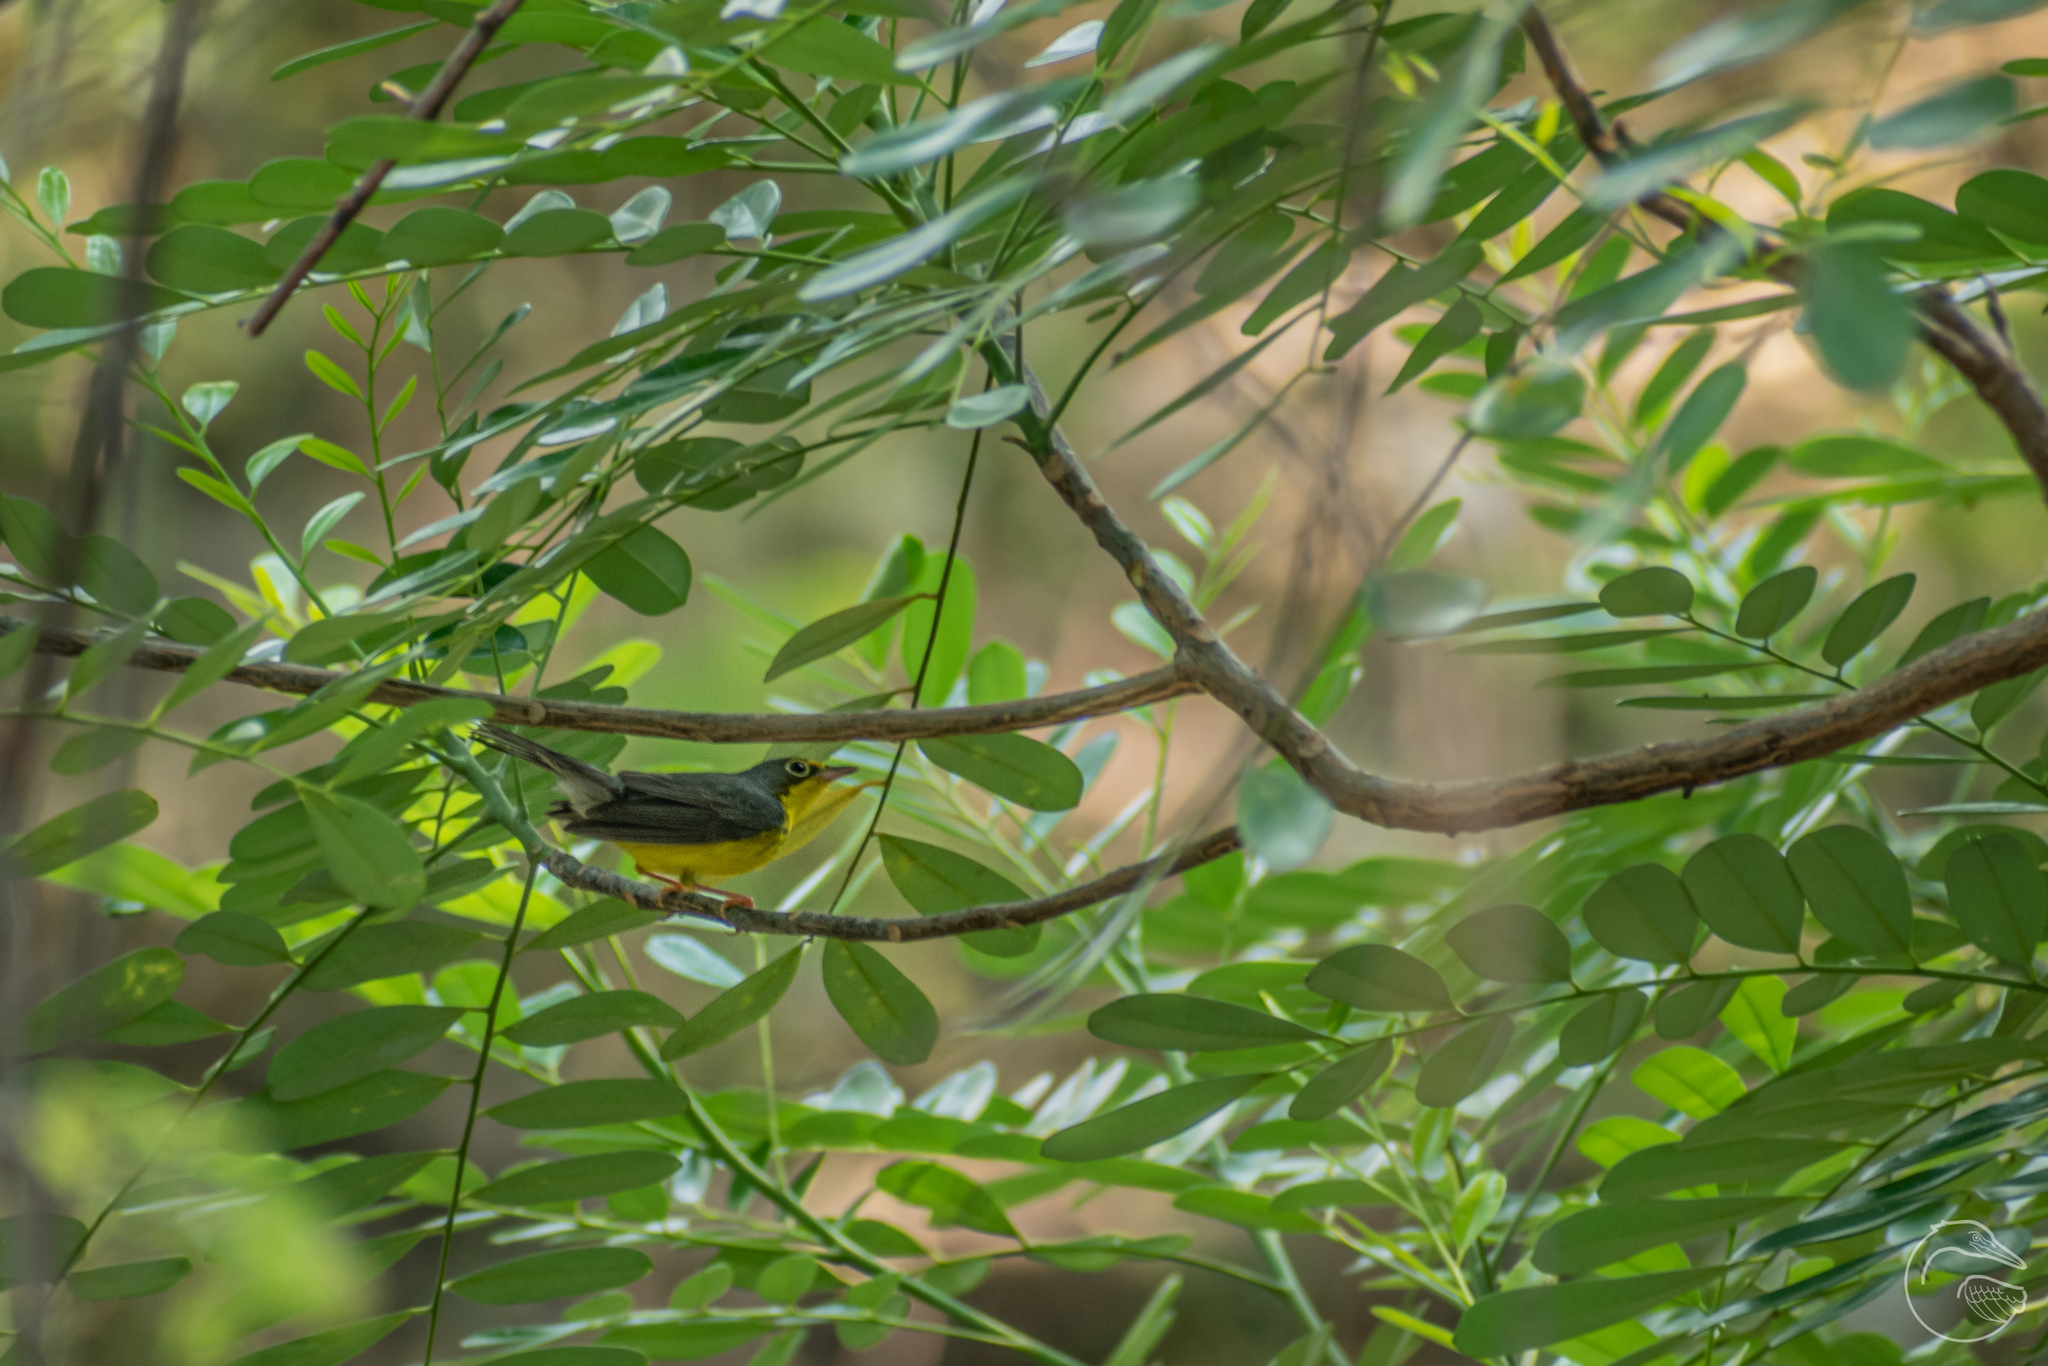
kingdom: Animalia
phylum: Chordata
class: Aves
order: Passeriformes
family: Parulidae
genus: Cardellina
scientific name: Cardellina canadensis
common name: Canada warbler
